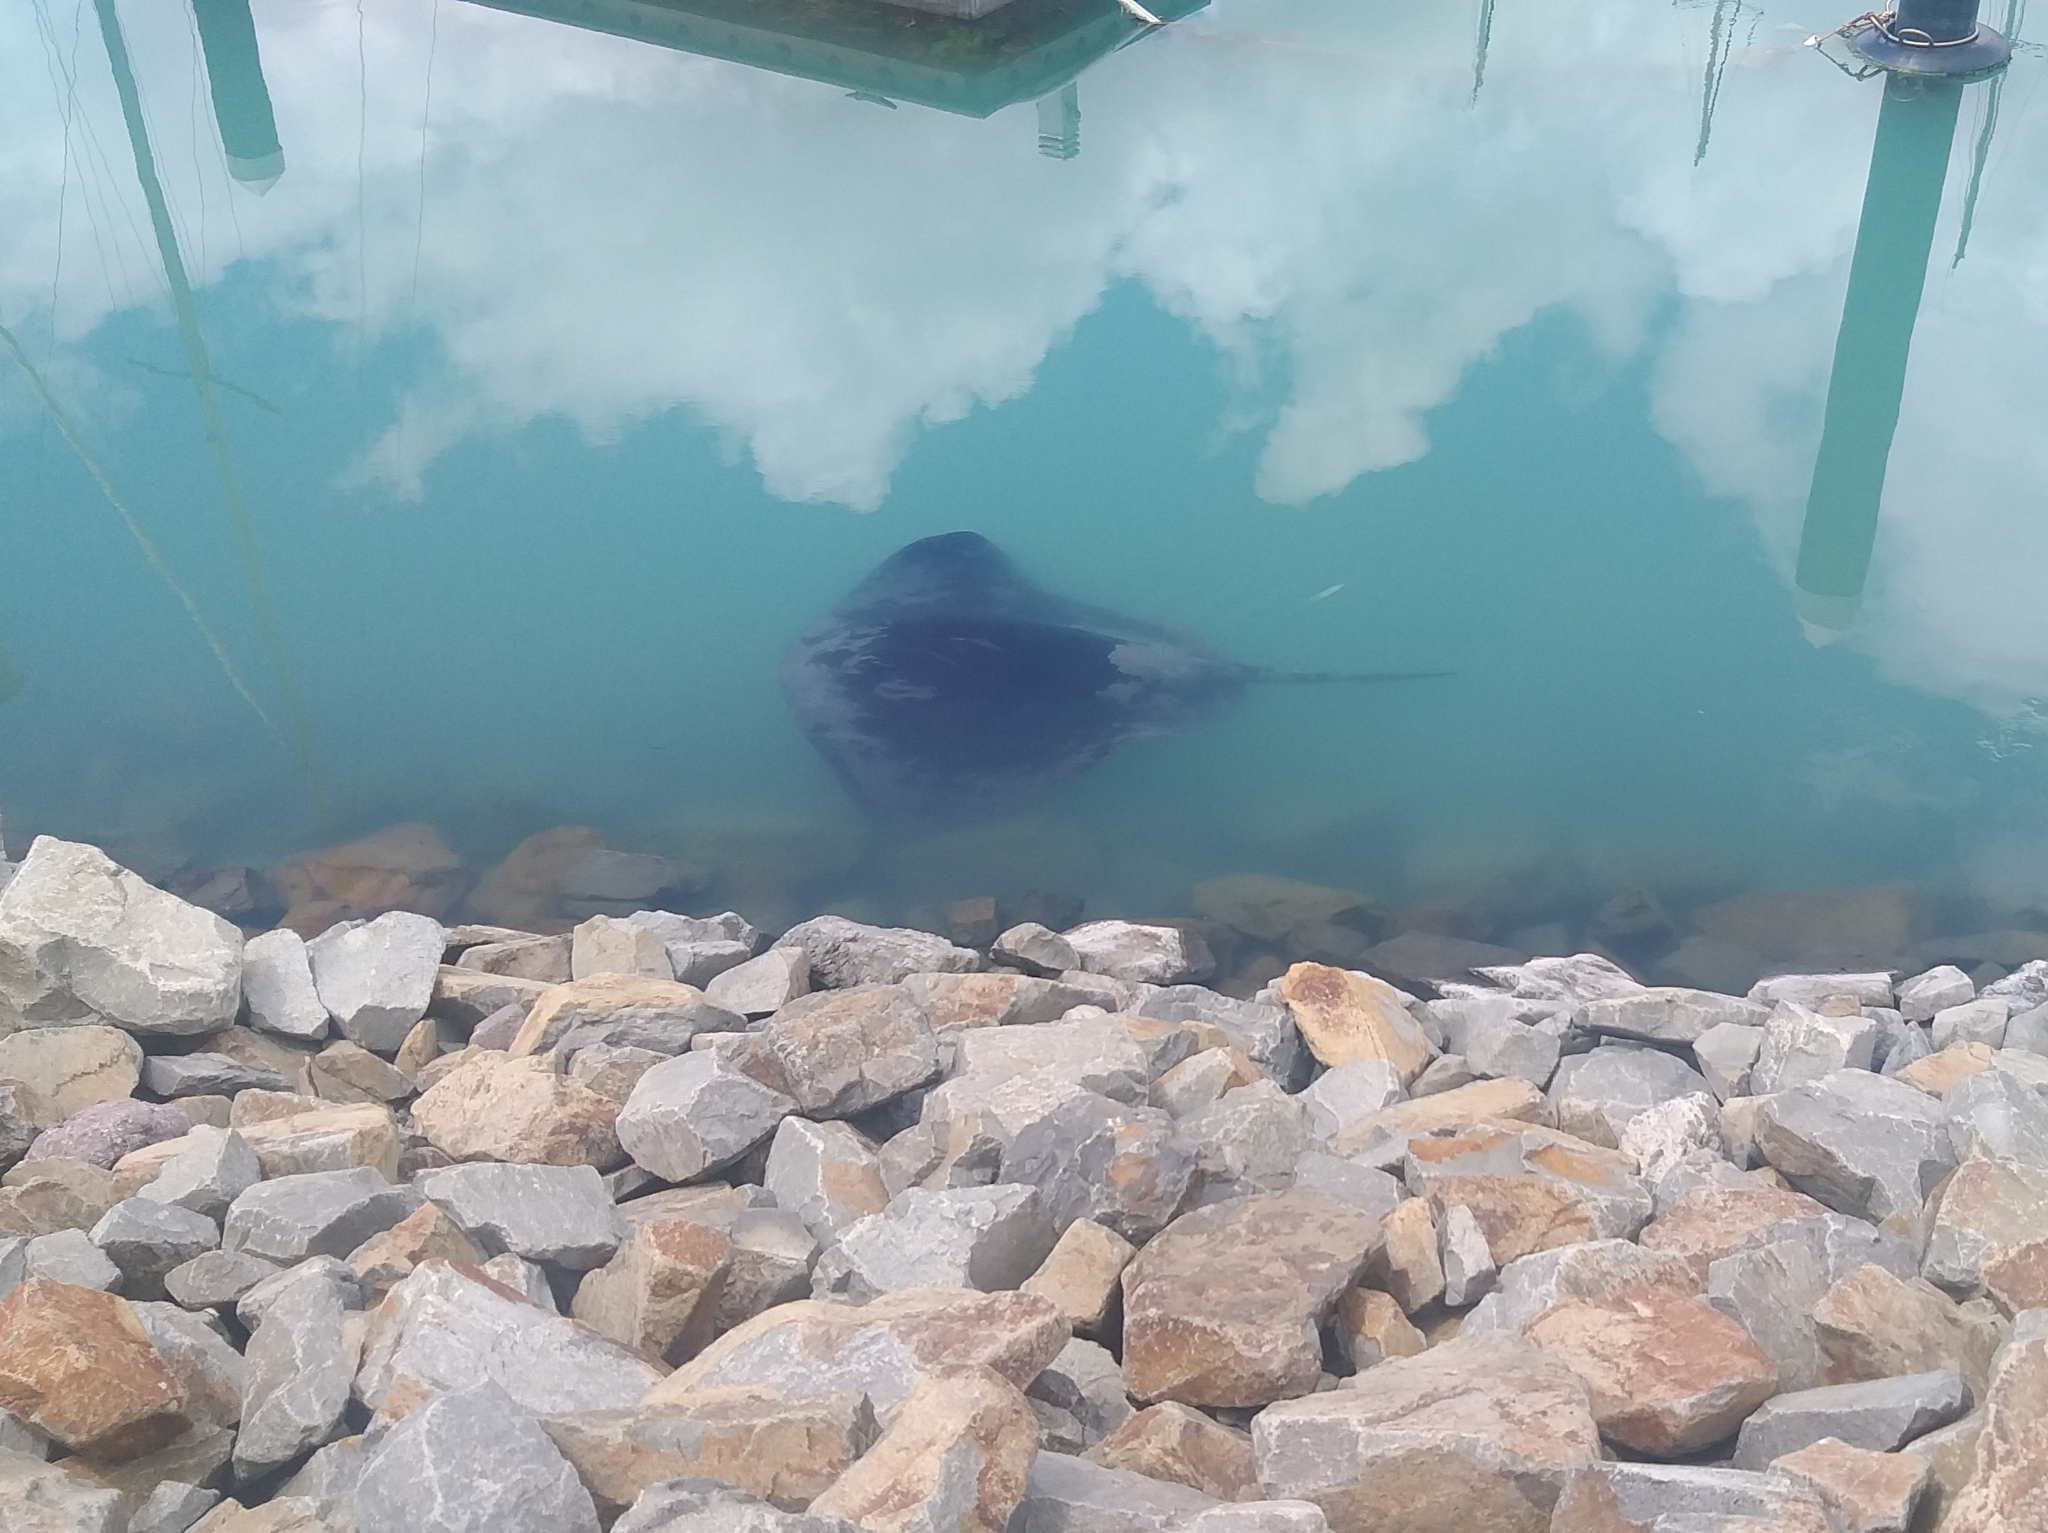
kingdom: Animalia
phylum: Chordata
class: Elasmobranchii
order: Myliobatiformes
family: Dasyatidae
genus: Bathytoshia
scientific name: Bathytoshia brevicaudata
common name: Short-tail stingray
